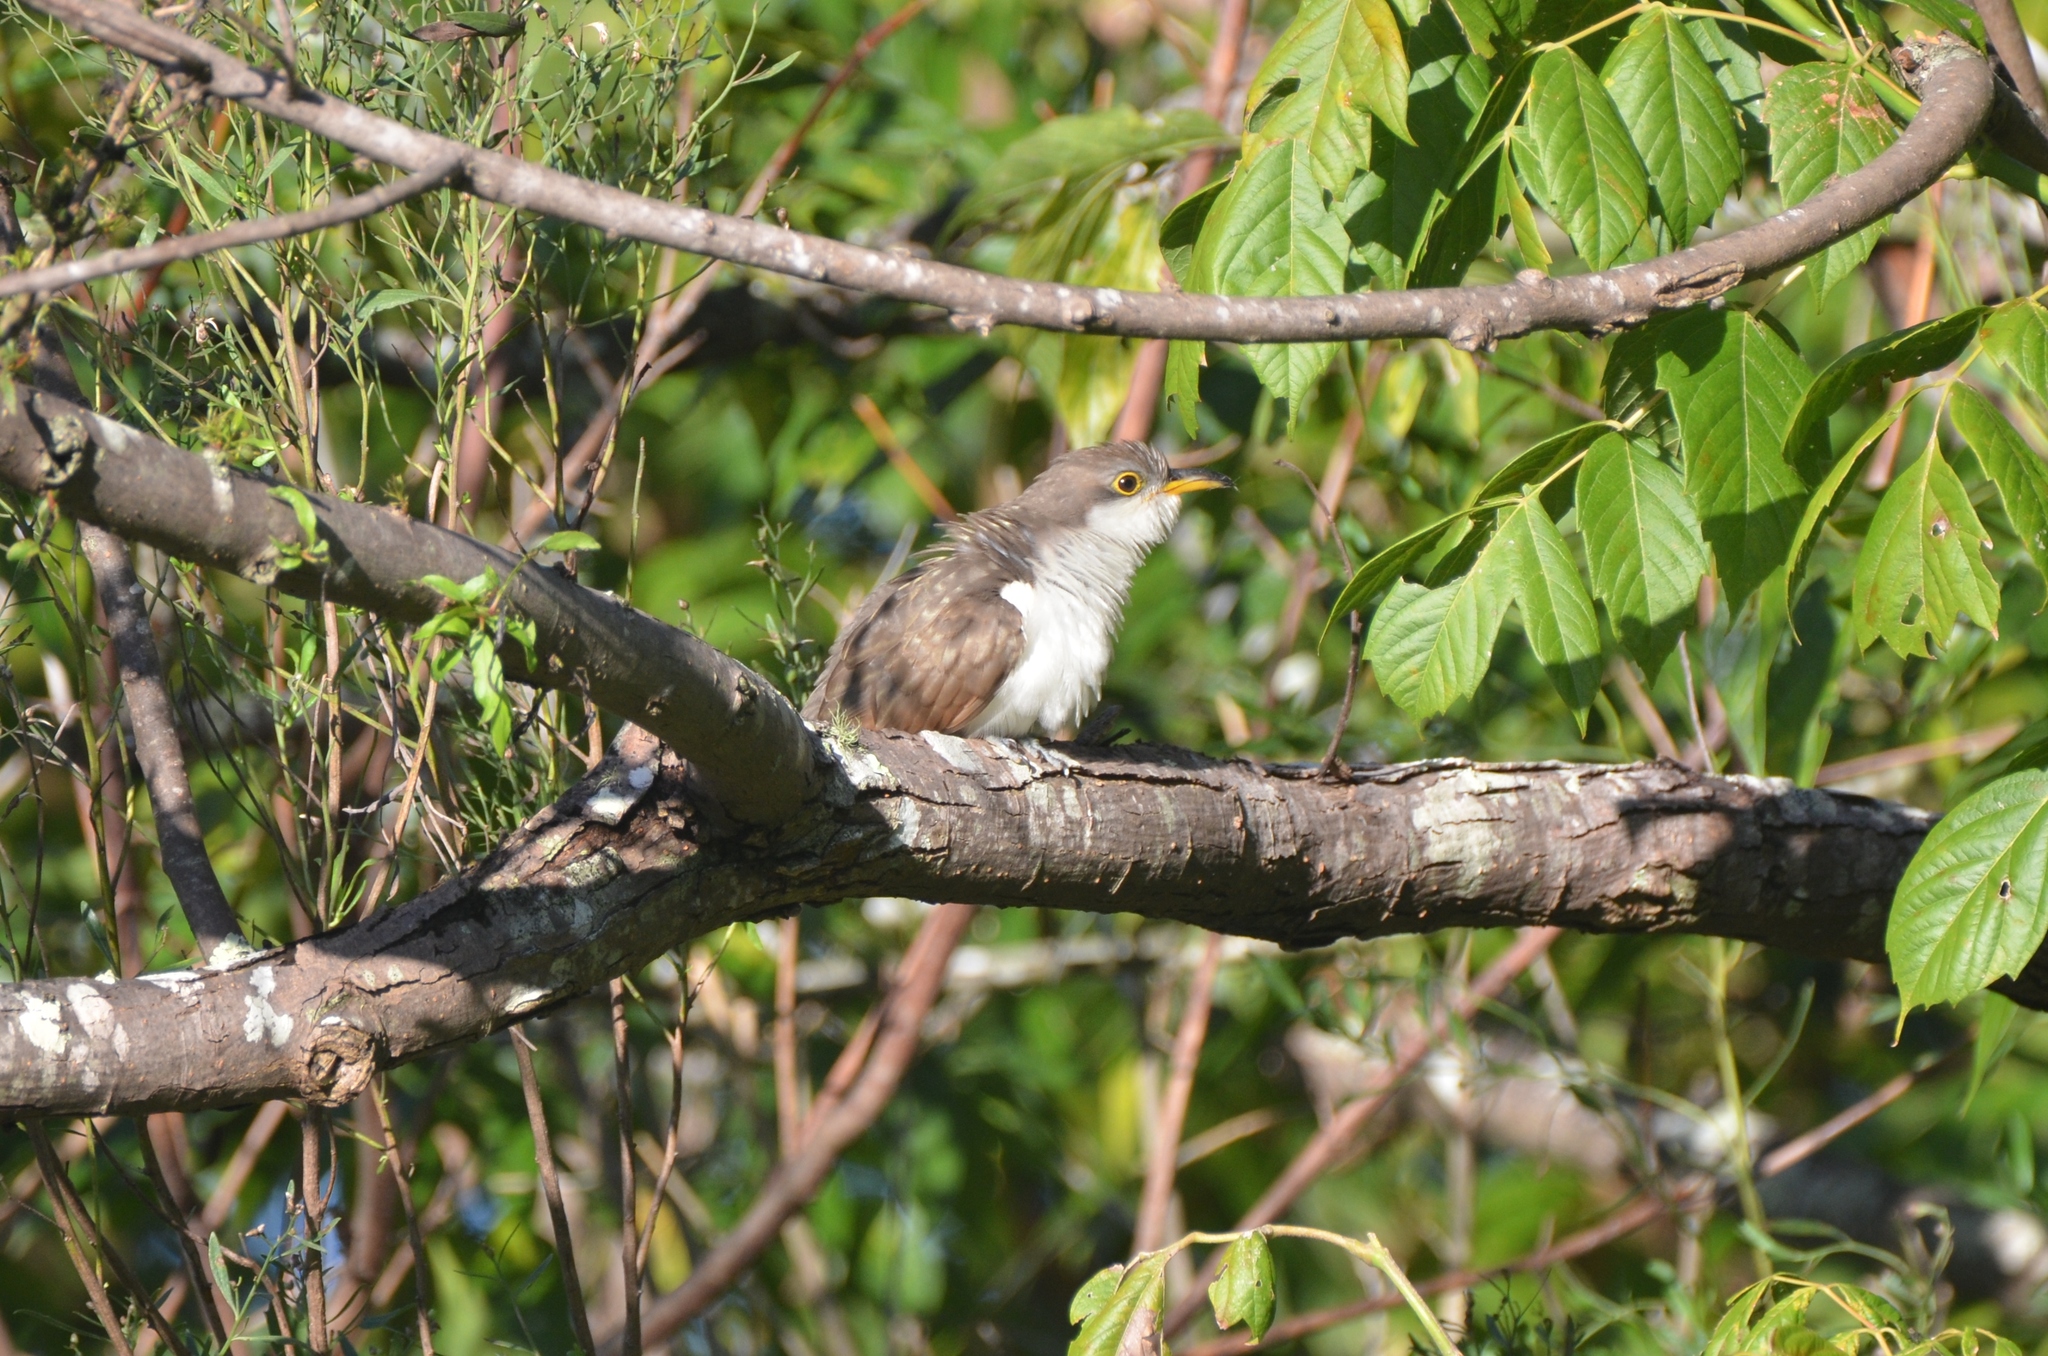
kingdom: Animalia
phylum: Chordata
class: Aves
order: Cuculiformes
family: Cuculidae
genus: Coccyzus
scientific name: Coccyzus americanus
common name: Yellow-billed cuckoo
